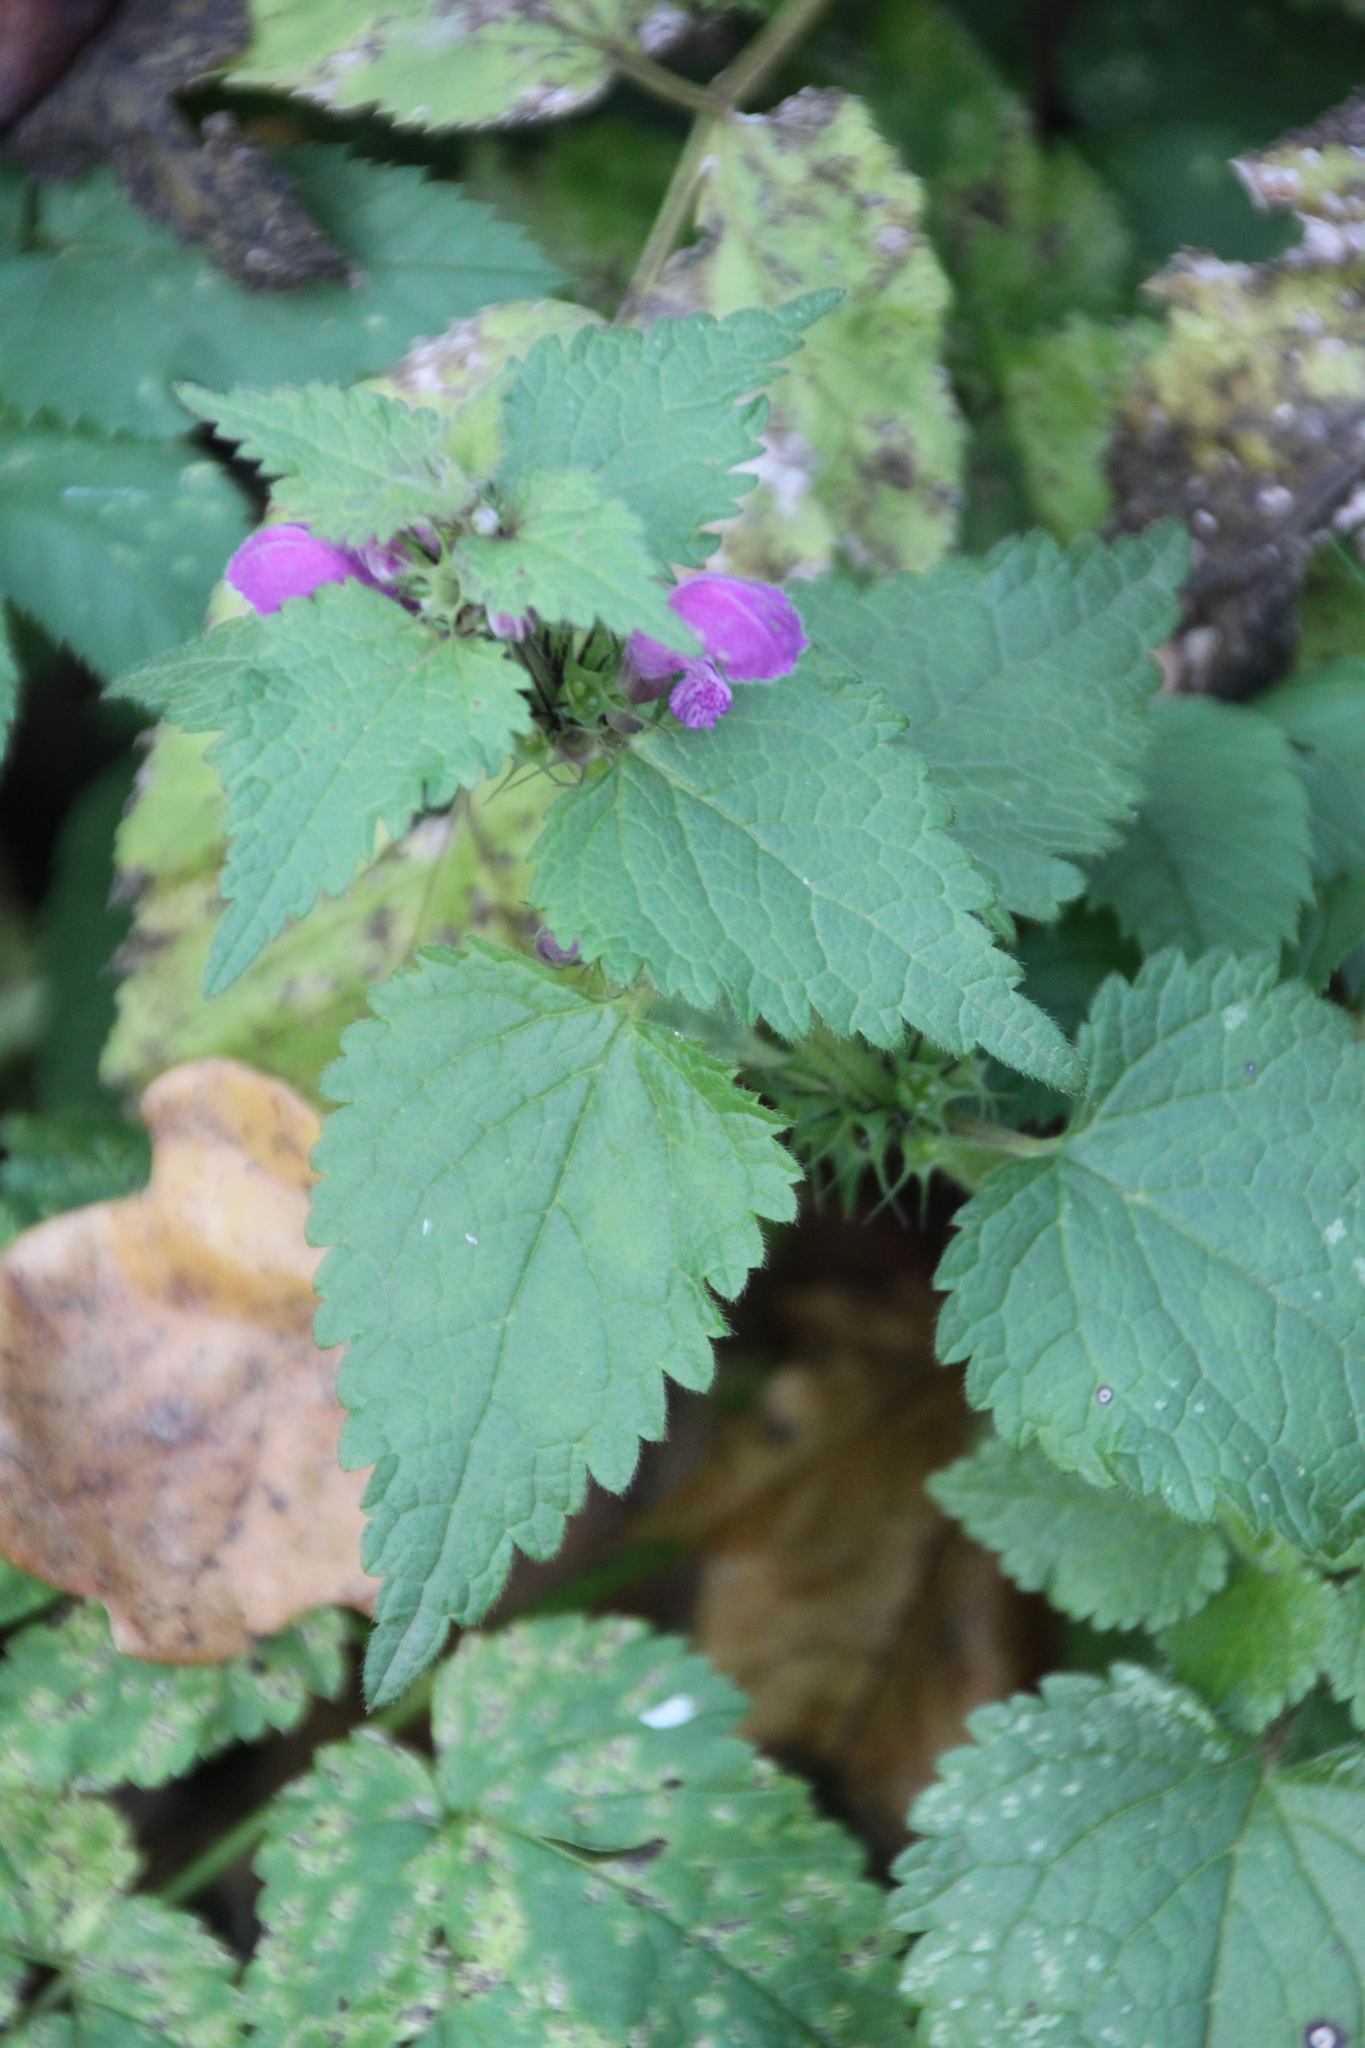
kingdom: Plantae
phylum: Tracheophyta
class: Magnoliopsida
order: Lamiales
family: Lamiaceae
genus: Lamium
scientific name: Lamium maculatum
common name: Spotted dead-nettle
